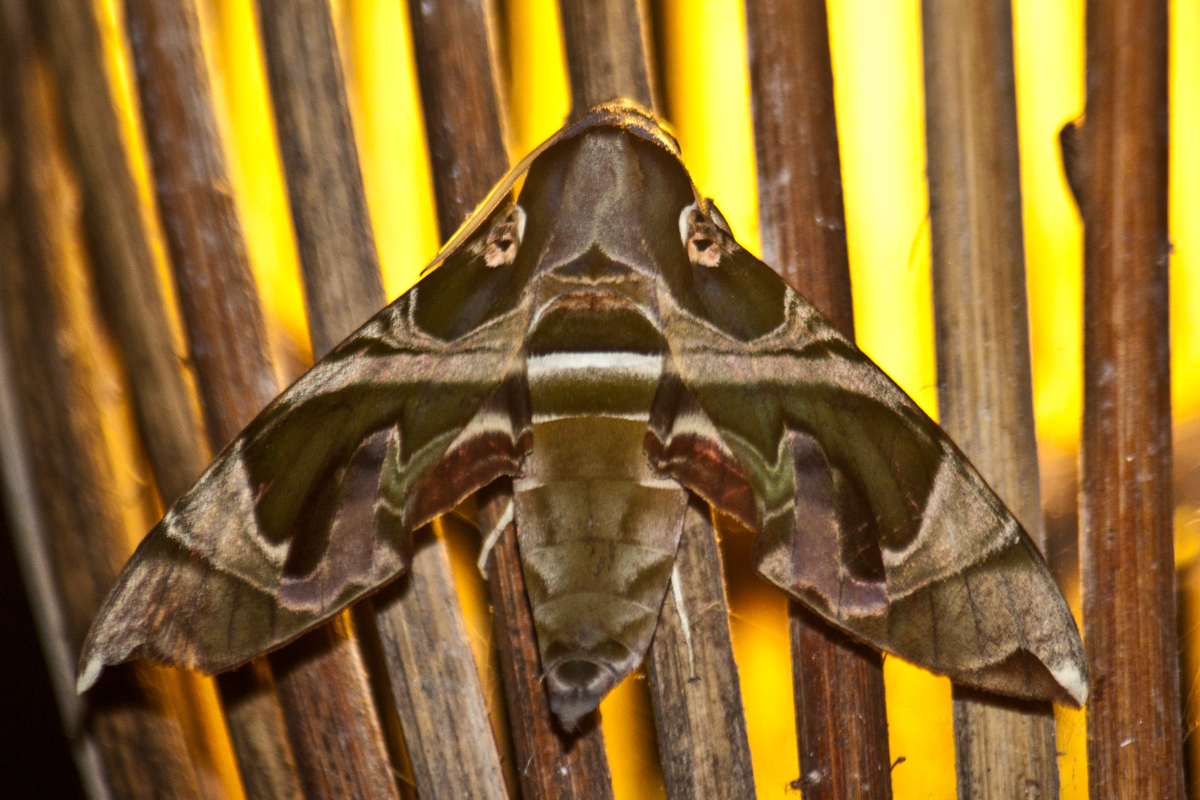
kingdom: Animalia
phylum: Arthropoda
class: Insecta
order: Lepidoptera
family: Sphingidae
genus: Daphnis
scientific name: Daphnis hypothous
